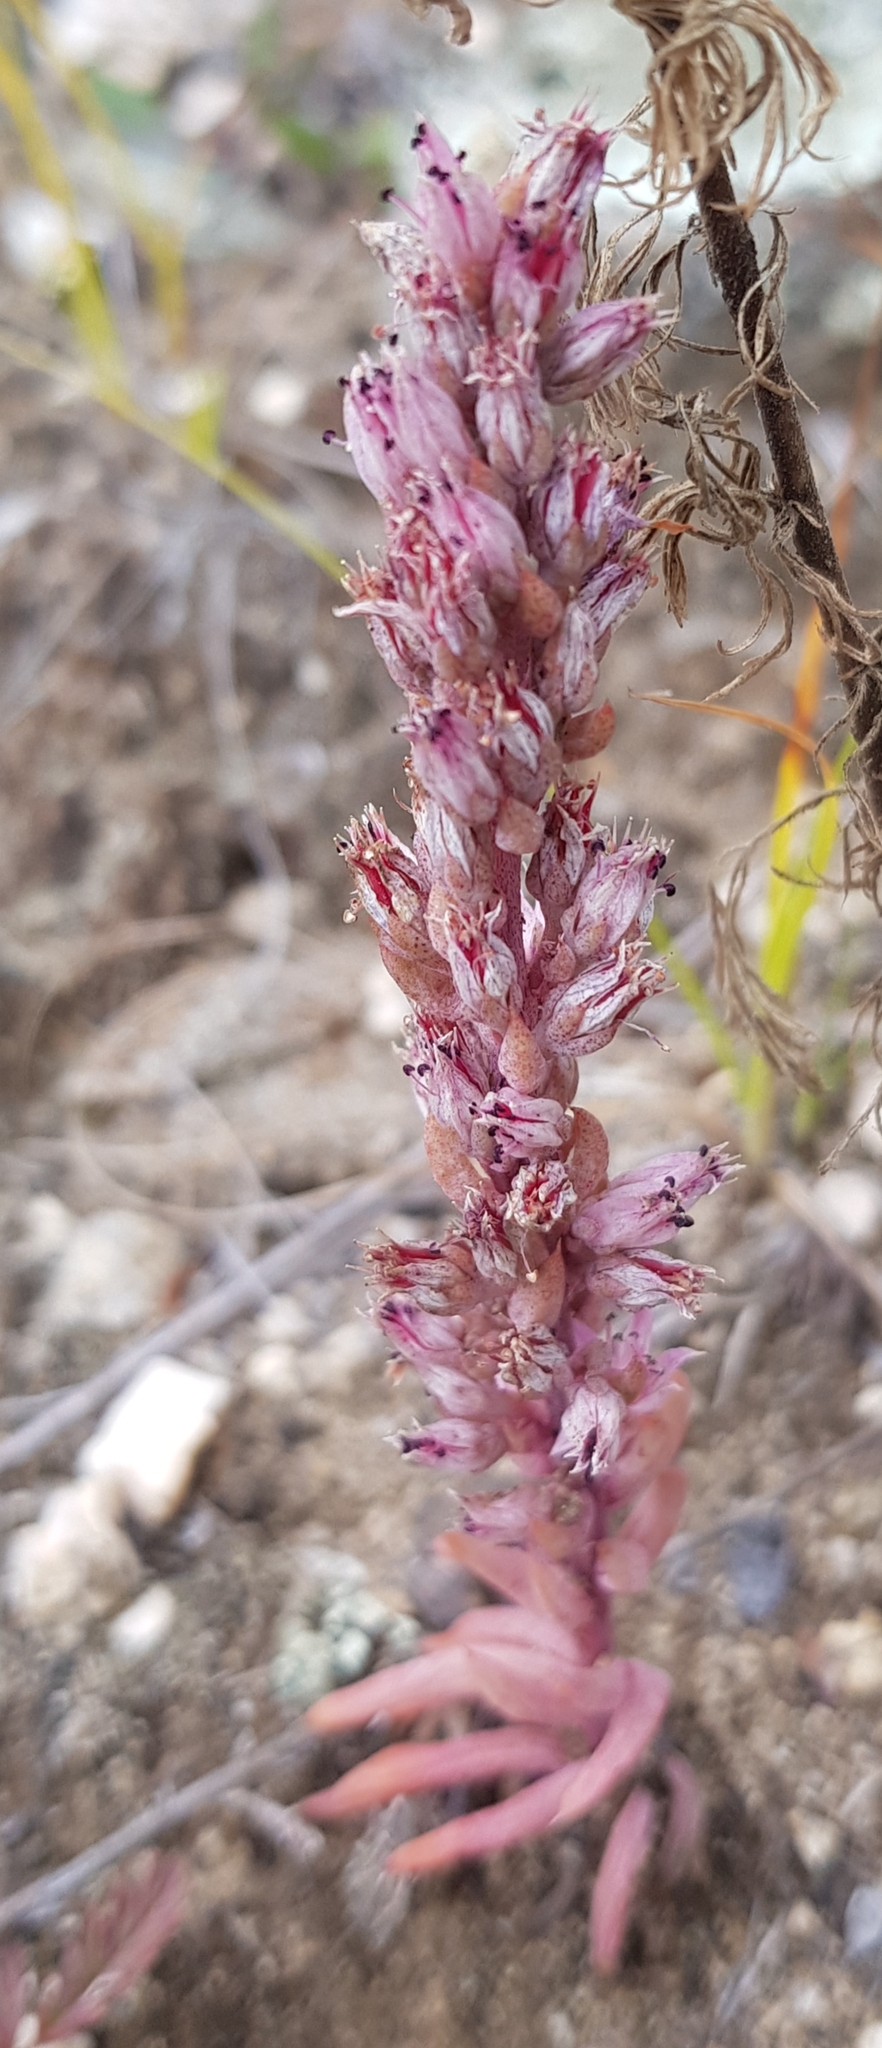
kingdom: Plantae
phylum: Tracheophyta
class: Magnoliopsida
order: Saxifragales
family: Crassulaceae
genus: Orostachys
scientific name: Orostachys fimbriata
